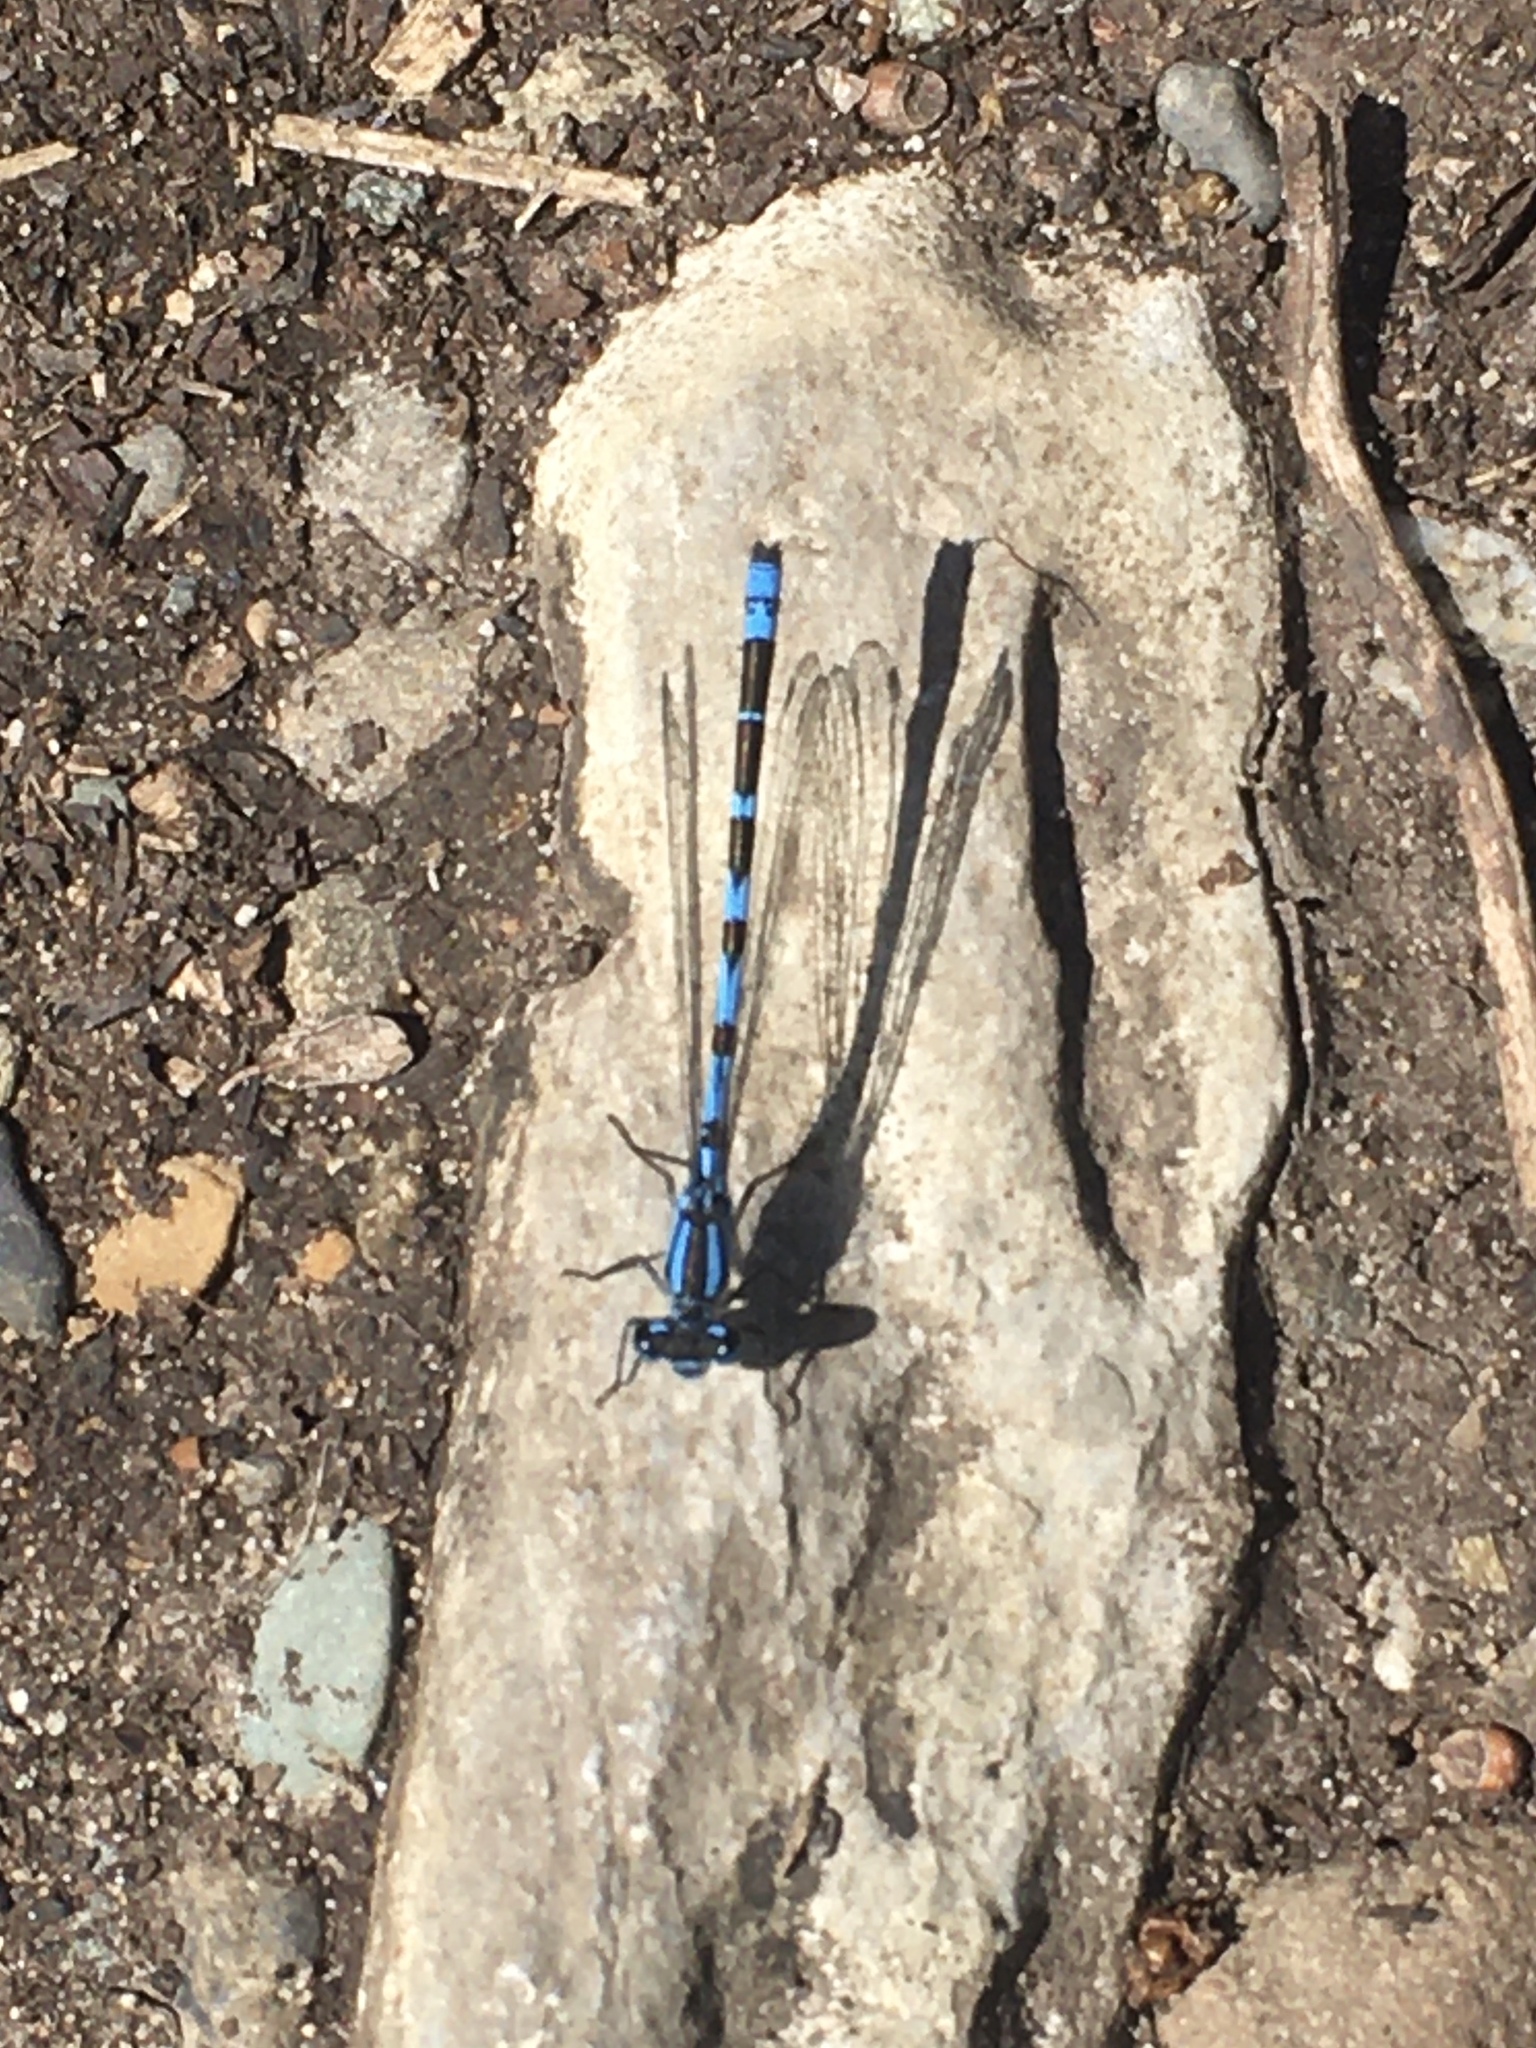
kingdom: Animalia
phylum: Arthropoda
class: Insecta
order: Odonata
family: Coenagrionidae
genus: Enallagma
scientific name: Enallagma cyathigerum
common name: Common blue damselfly
